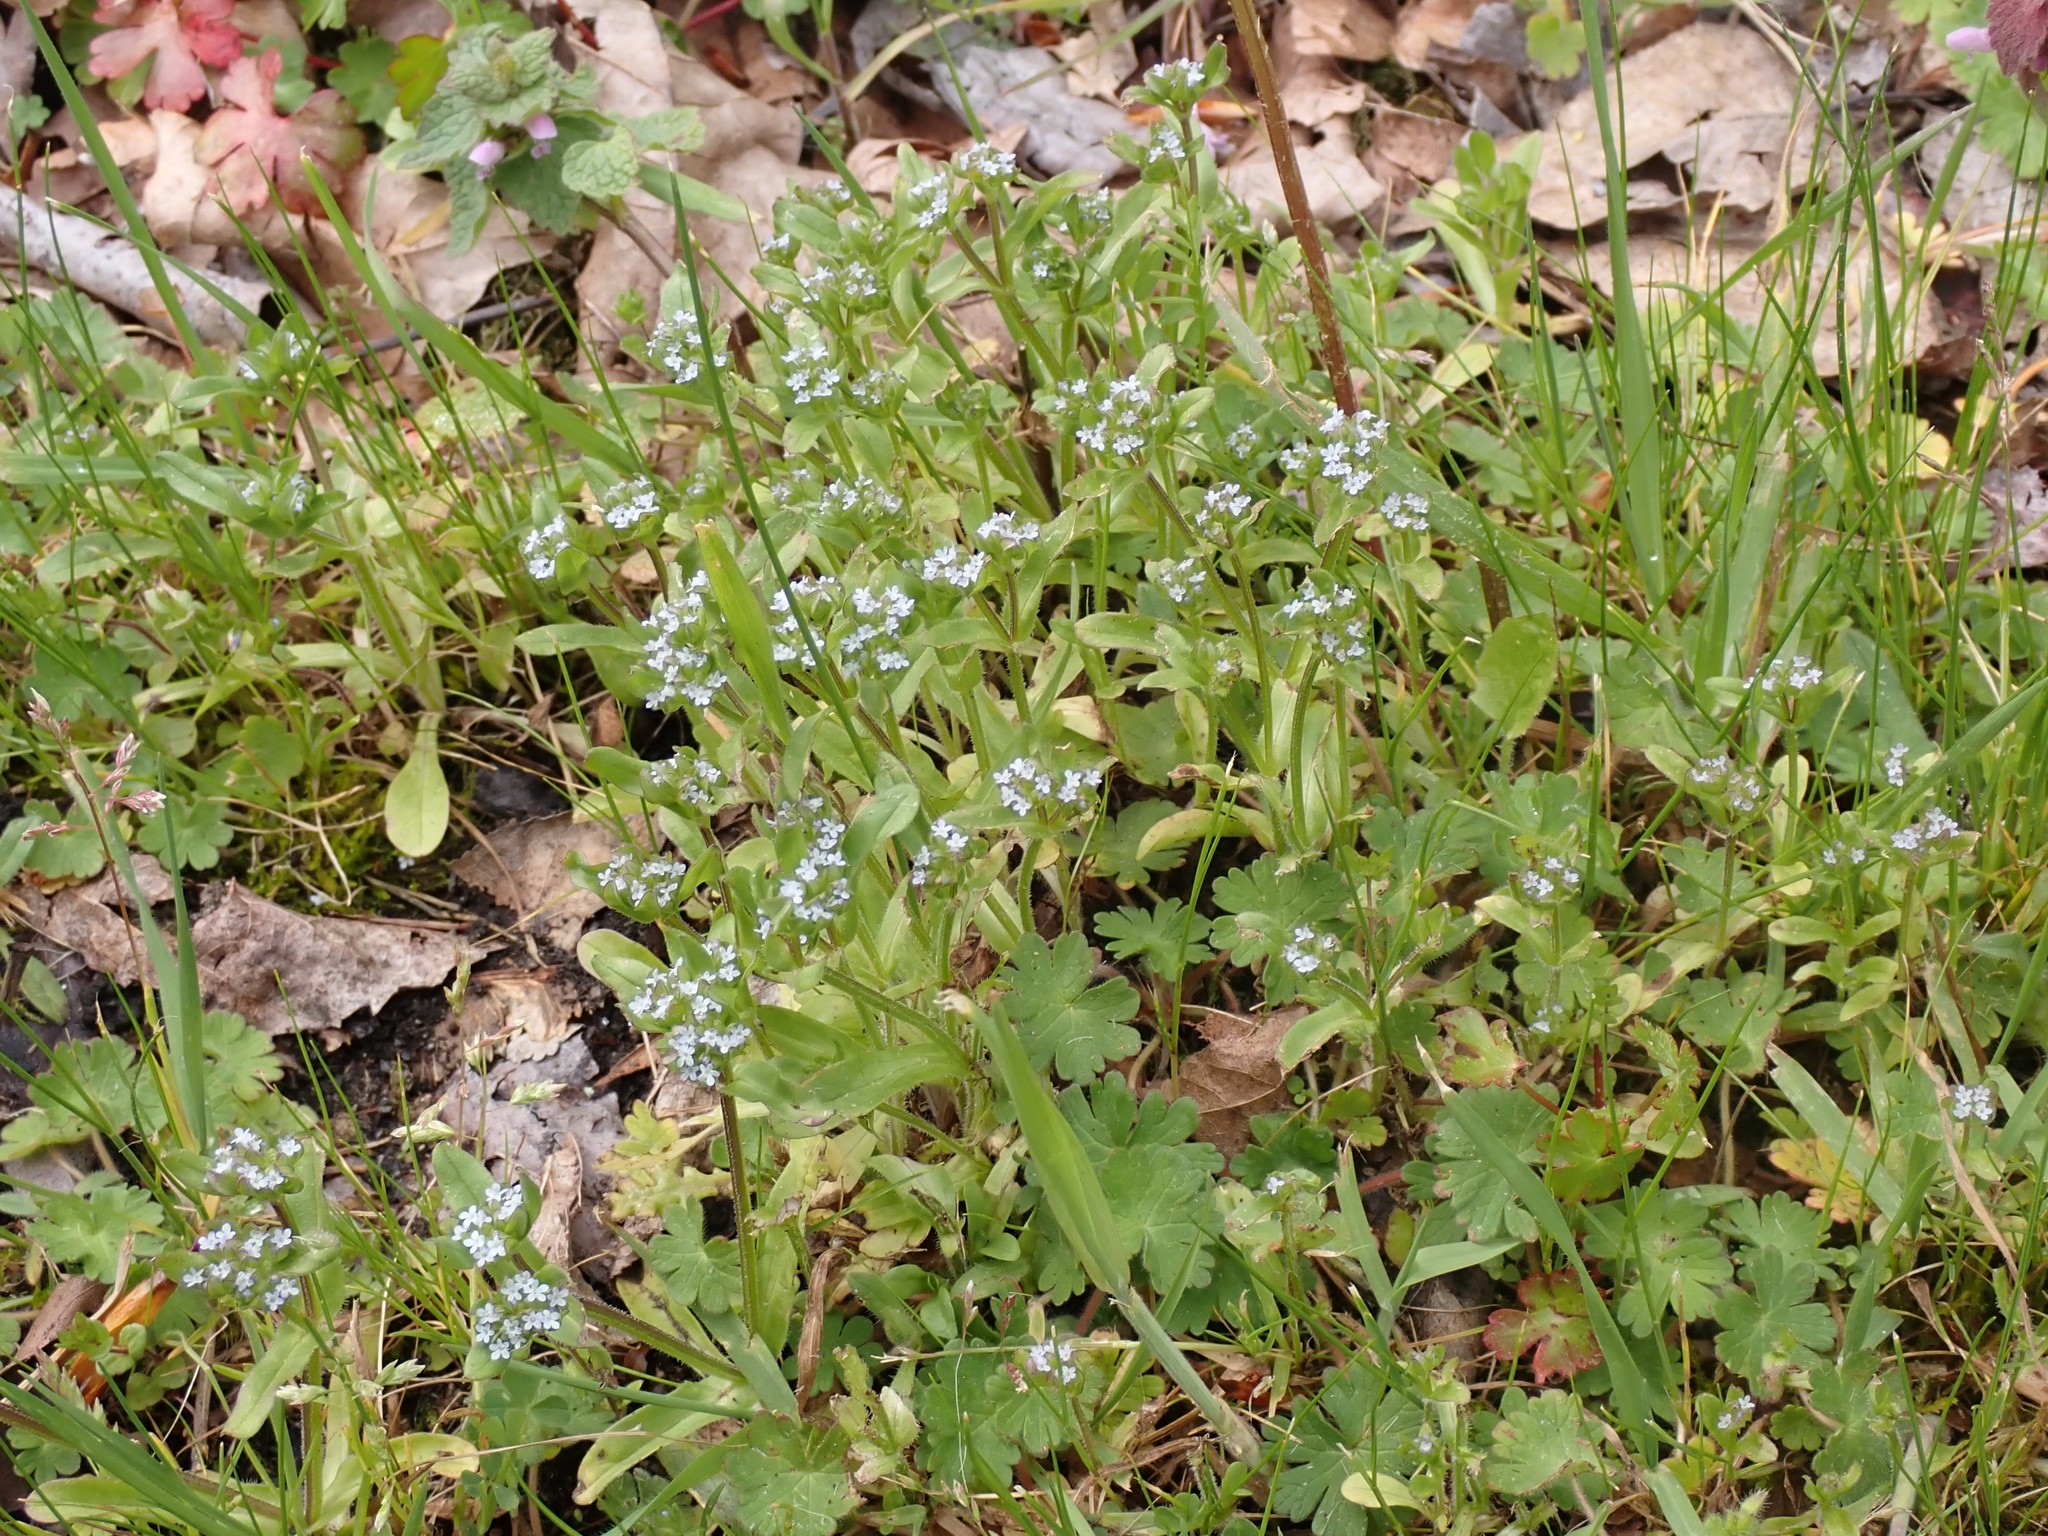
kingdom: Plantae
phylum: Tracheophyta
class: Magnoliopsida
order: Dipsacales
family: Caprifoliaceae
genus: Valerianella
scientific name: Valerianella locusta
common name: Common cornsalad
